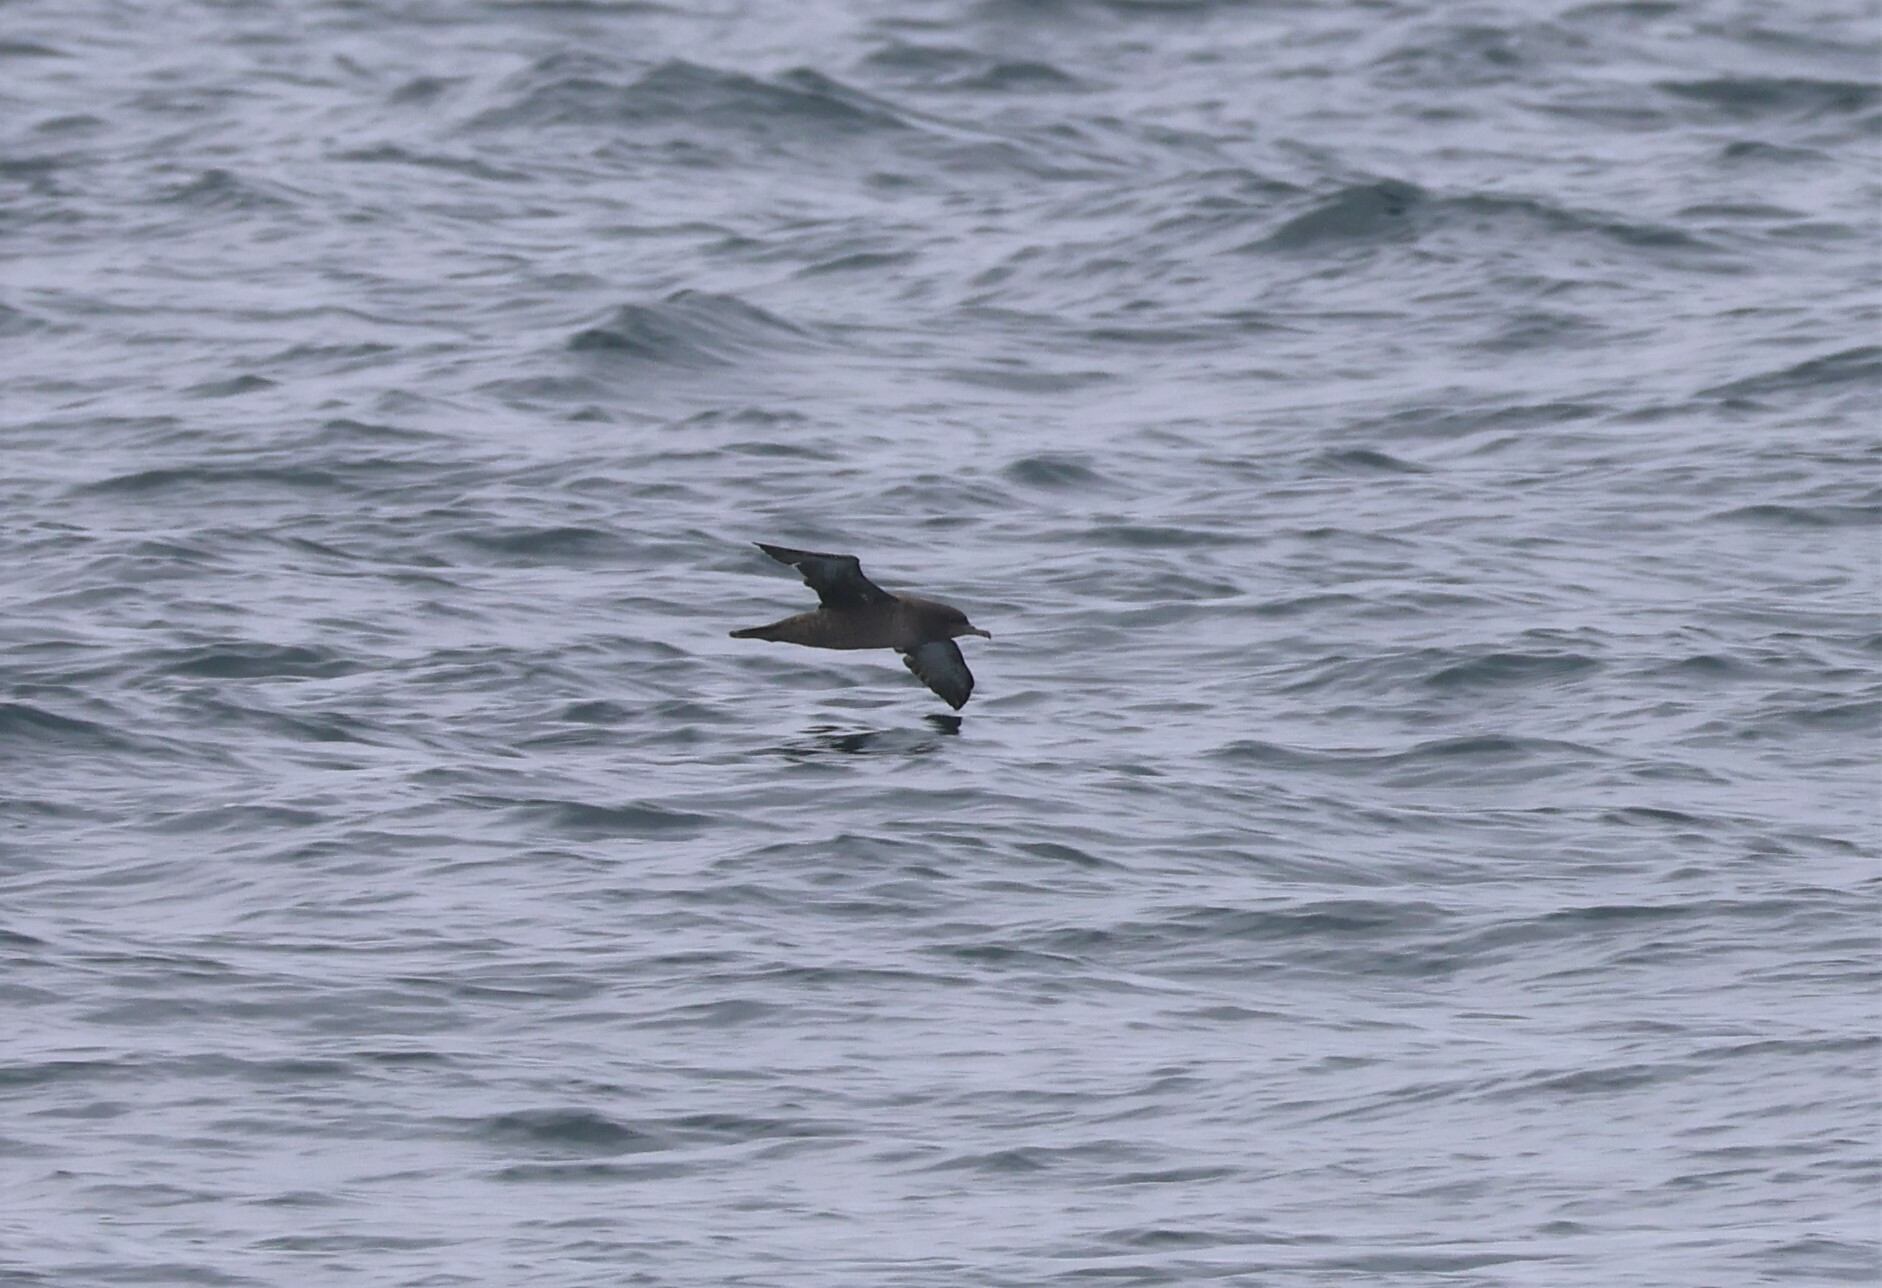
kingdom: Animalia
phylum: Chordata
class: Aves
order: Procellariiformes
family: Procellariidae
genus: Puffinus
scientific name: Puffinus griseus
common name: Sooty shearwater
